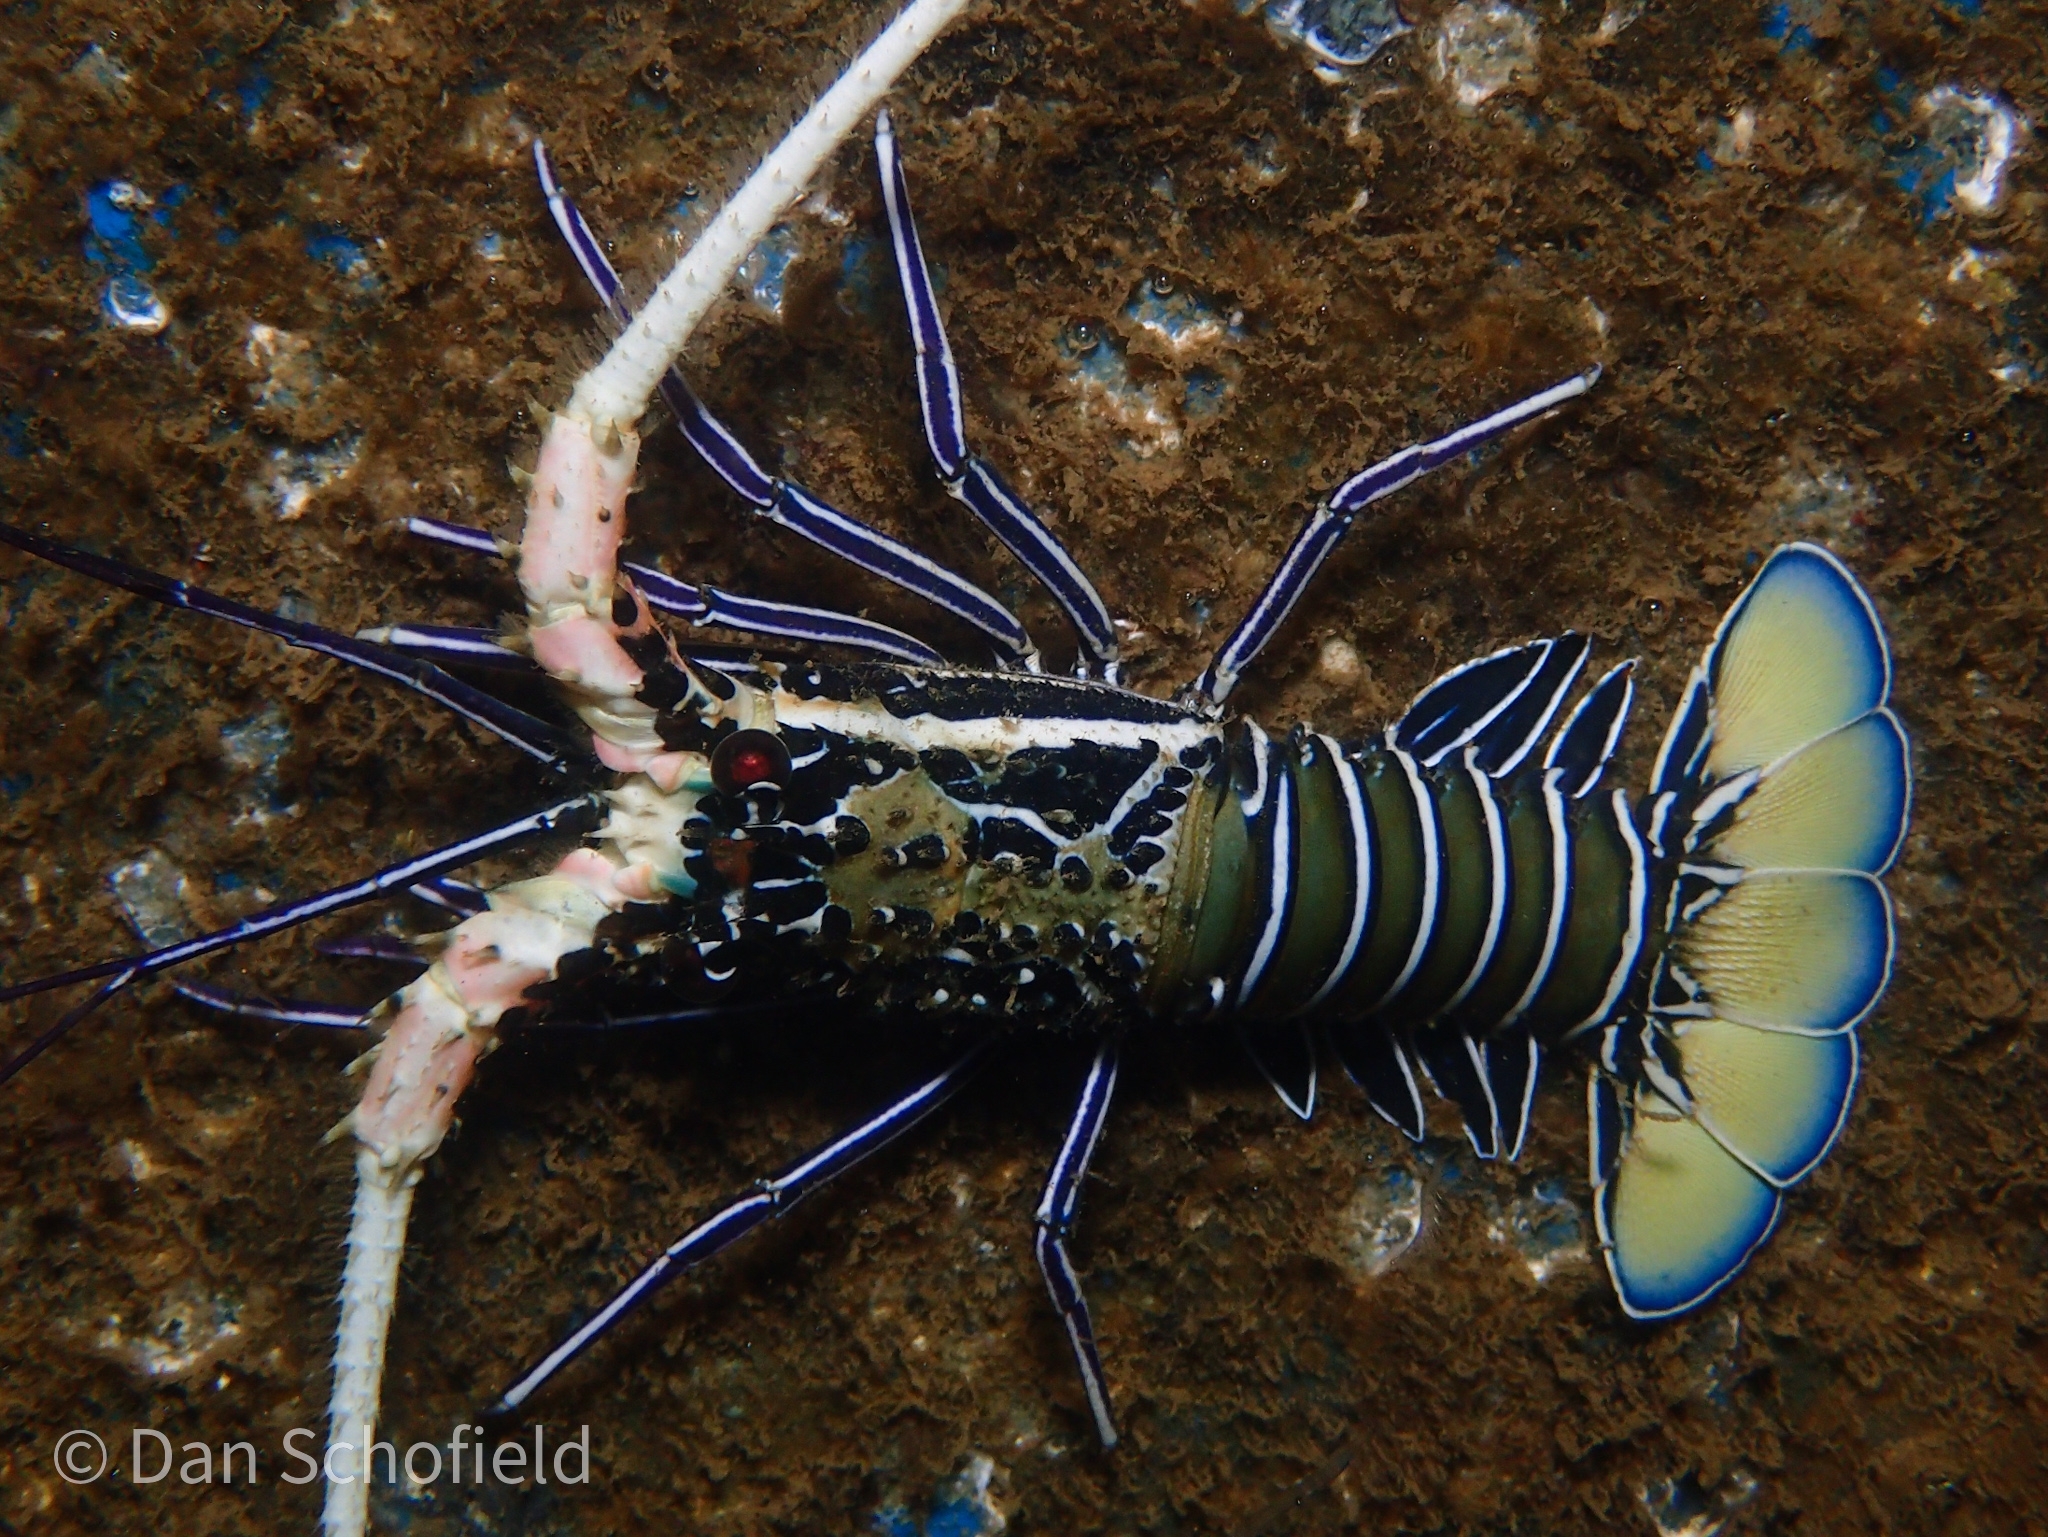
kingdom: Animalia
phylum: Arthropoda
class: Malacostraca
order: Decapoda
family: Palinuridae
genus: Panulirus
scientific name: Panulirus versicolor
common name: Painted spiny lobster
